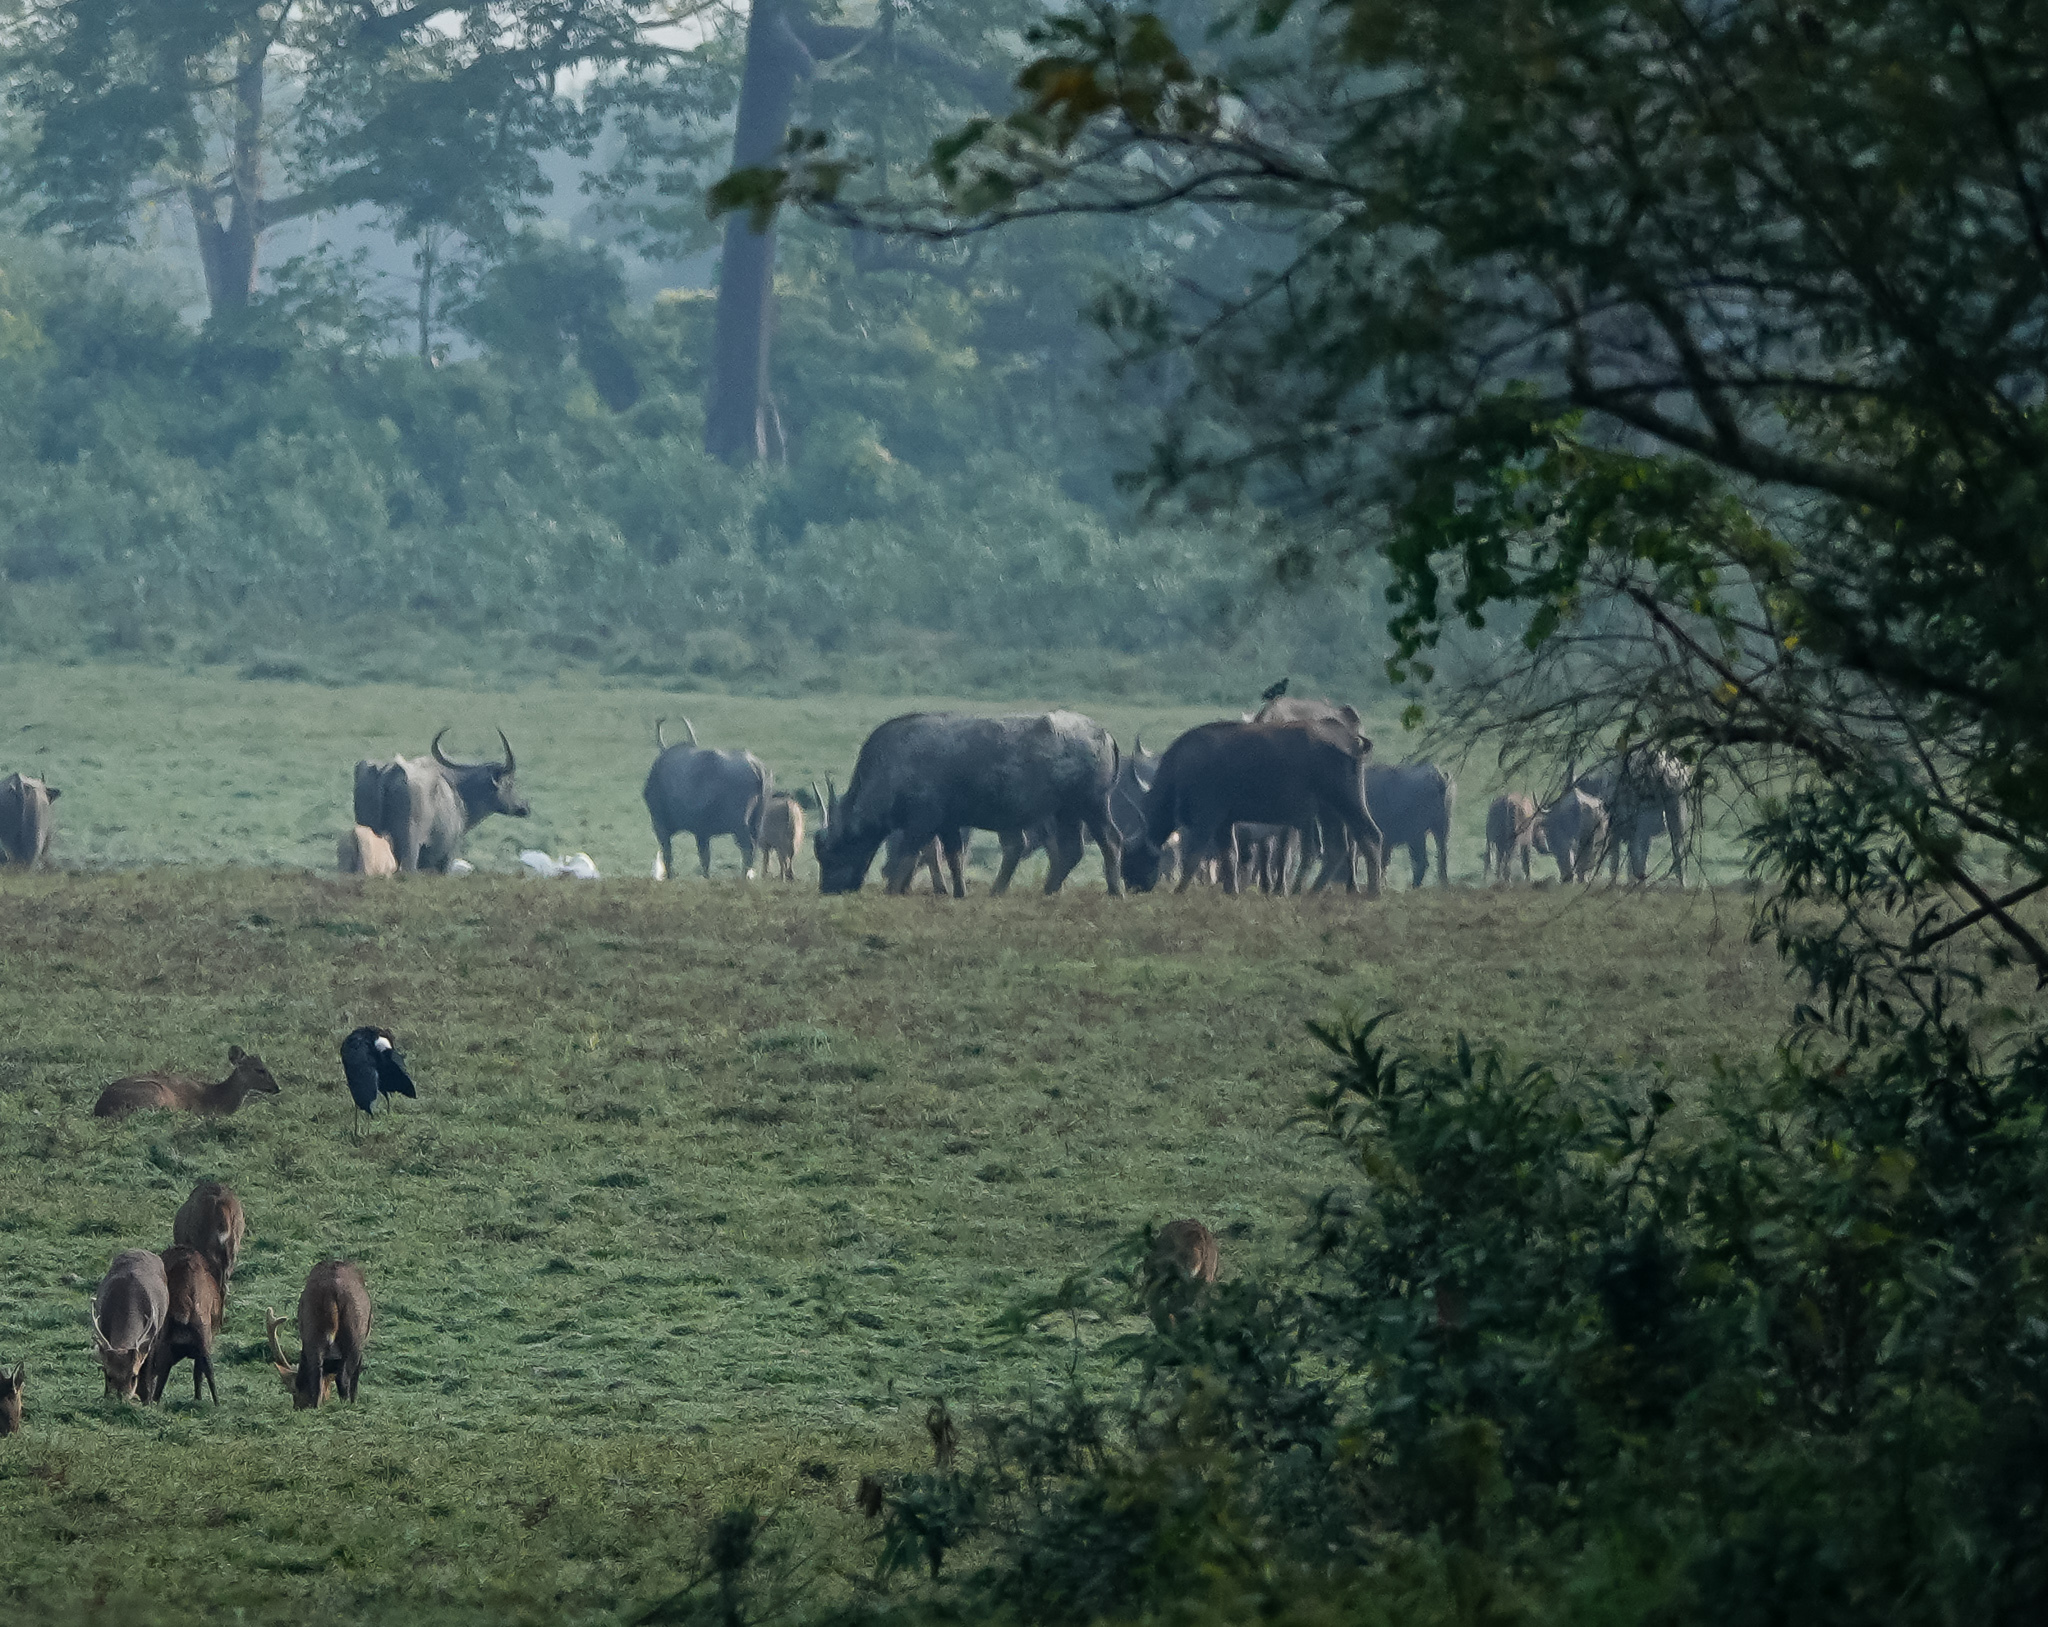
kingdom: Animalia
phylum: Chordata
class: Mammalia
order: Artiodactyla
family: Bovidae
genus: Bubalus
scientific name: Bubalus bubalis
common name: Water buffalo
